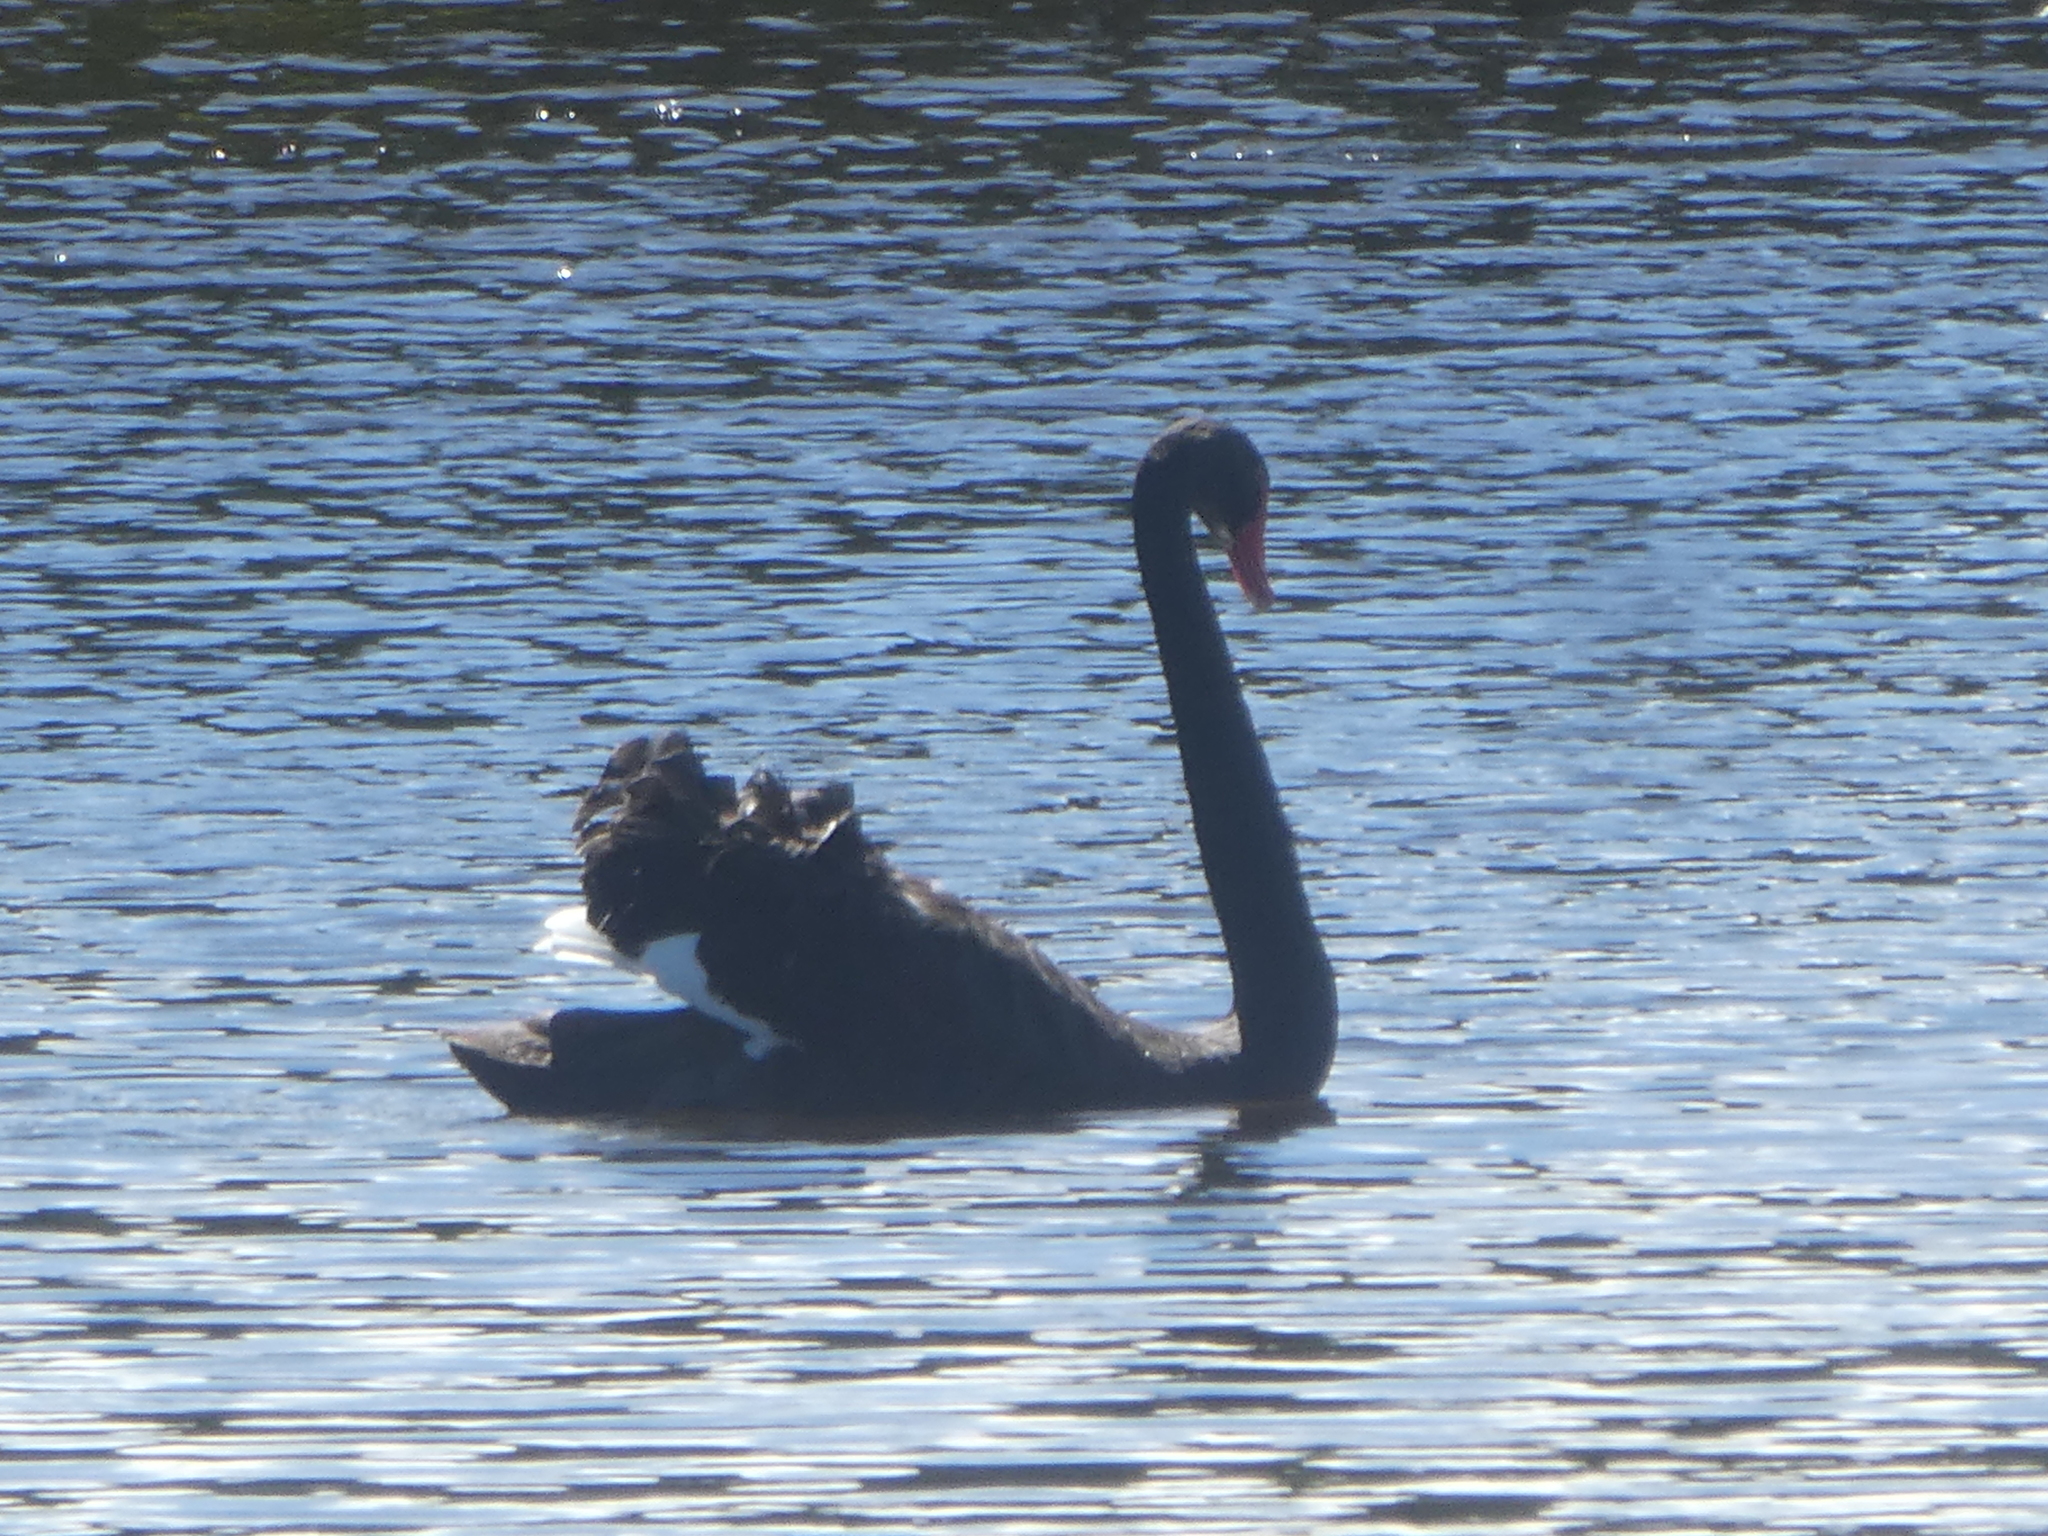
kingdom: Animalia
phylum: Chordata
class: Aves
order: Anseriformes
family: Anatidae
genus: Cygnus
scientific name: Cygnus atratus
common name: Black swan
